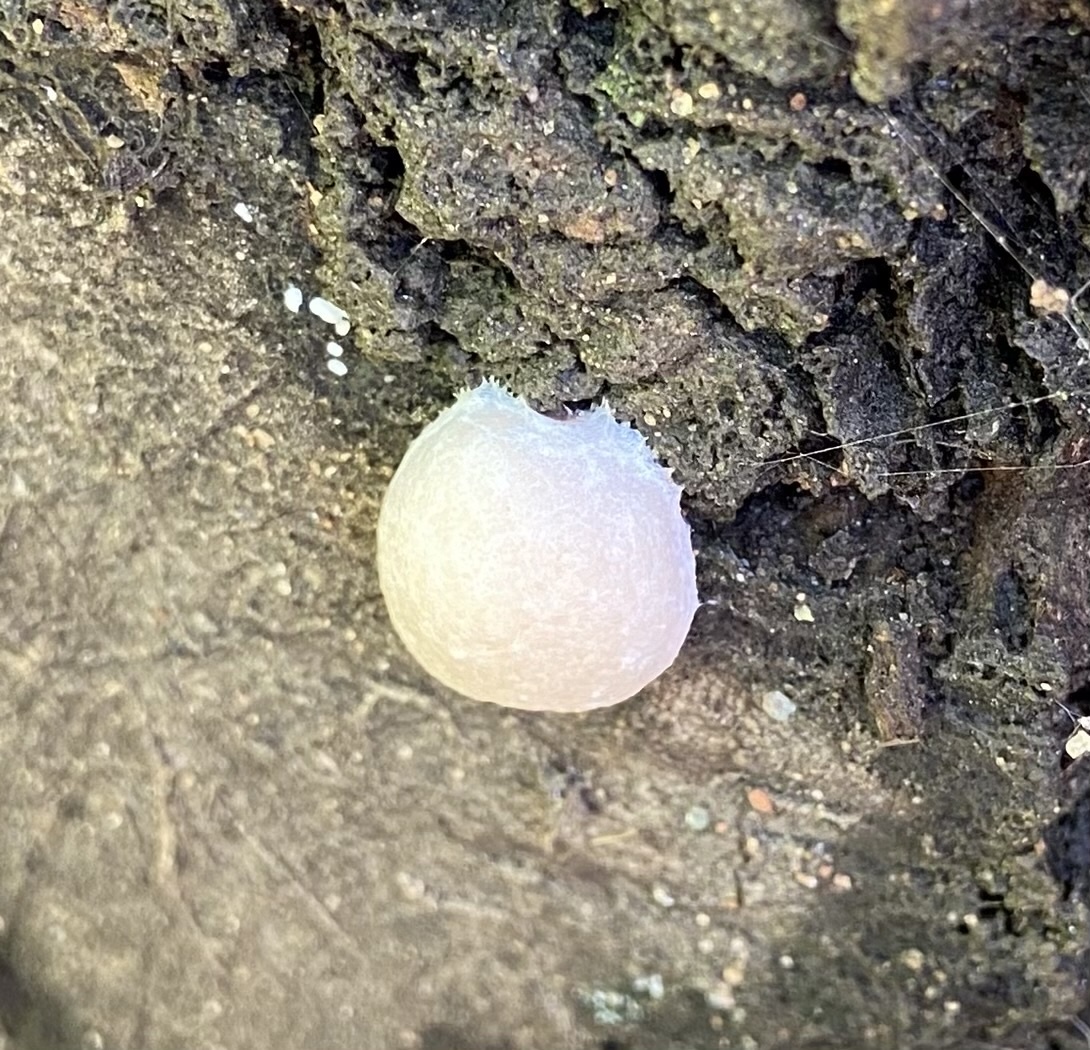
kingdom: Protozoa
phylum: Mycetozoa
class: Myxomycetes
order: Cribrariales
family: Tubiferaceae
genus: Reticularia
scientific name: Reticularia lycoperdon
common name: False puffball
